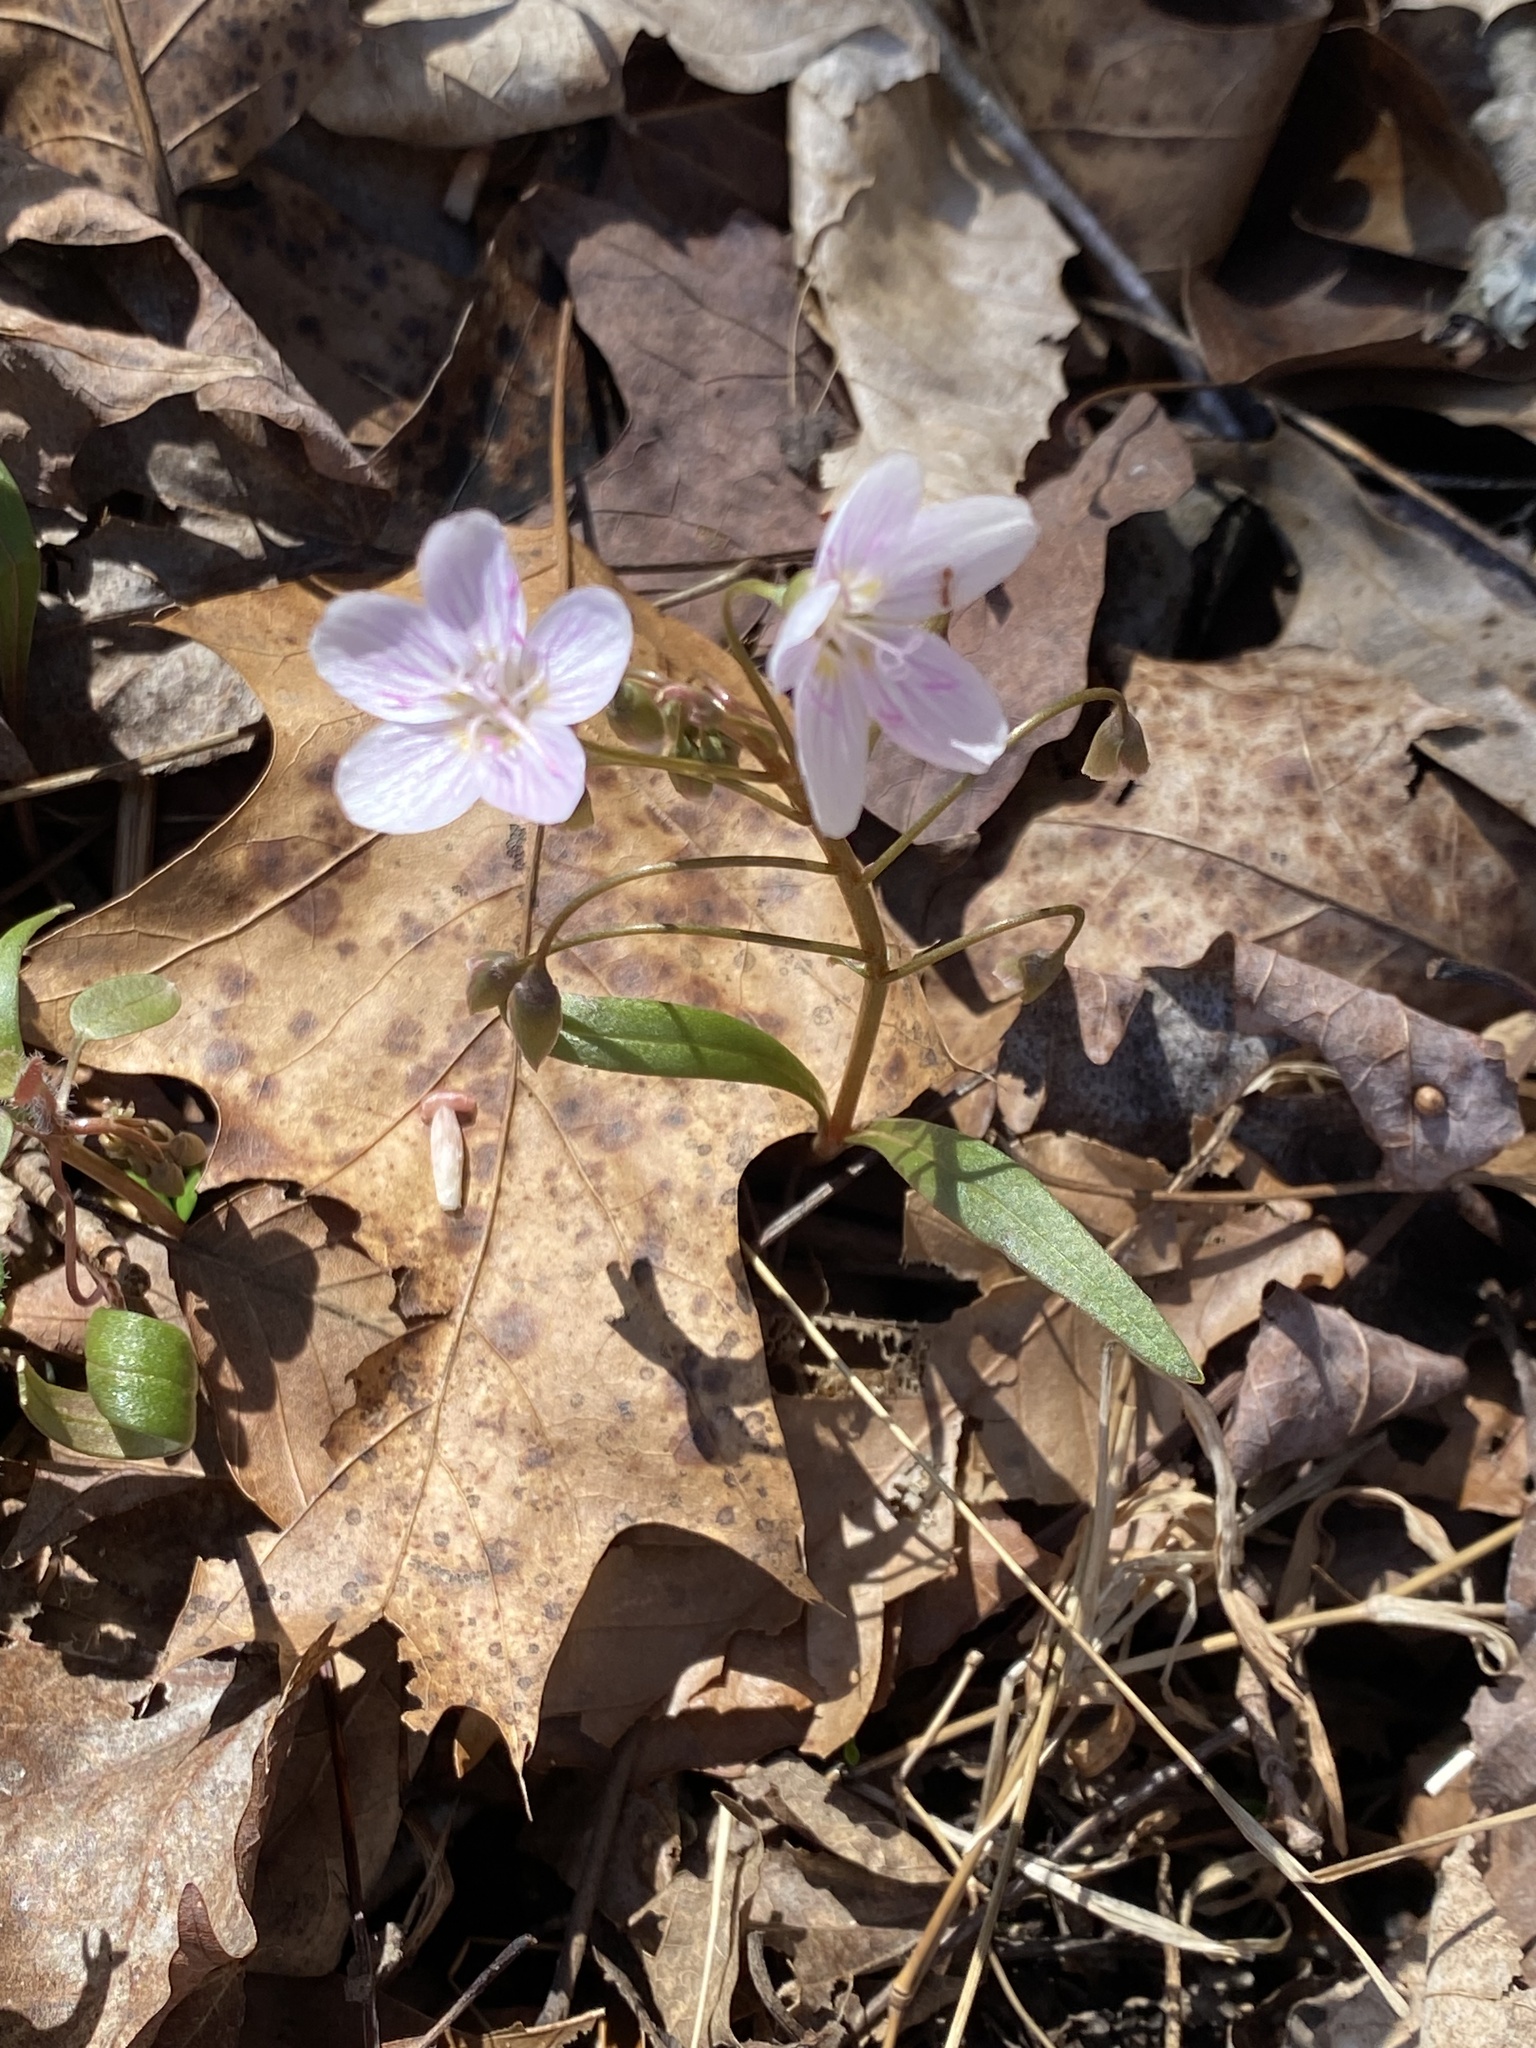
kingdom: Plantae
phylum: Tracheophyta
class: Magnoliopsida
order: Caryophyllales
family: Montiaceae
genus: Claytonia
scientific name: Claytonia virginica
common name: Virginia springbeauty
